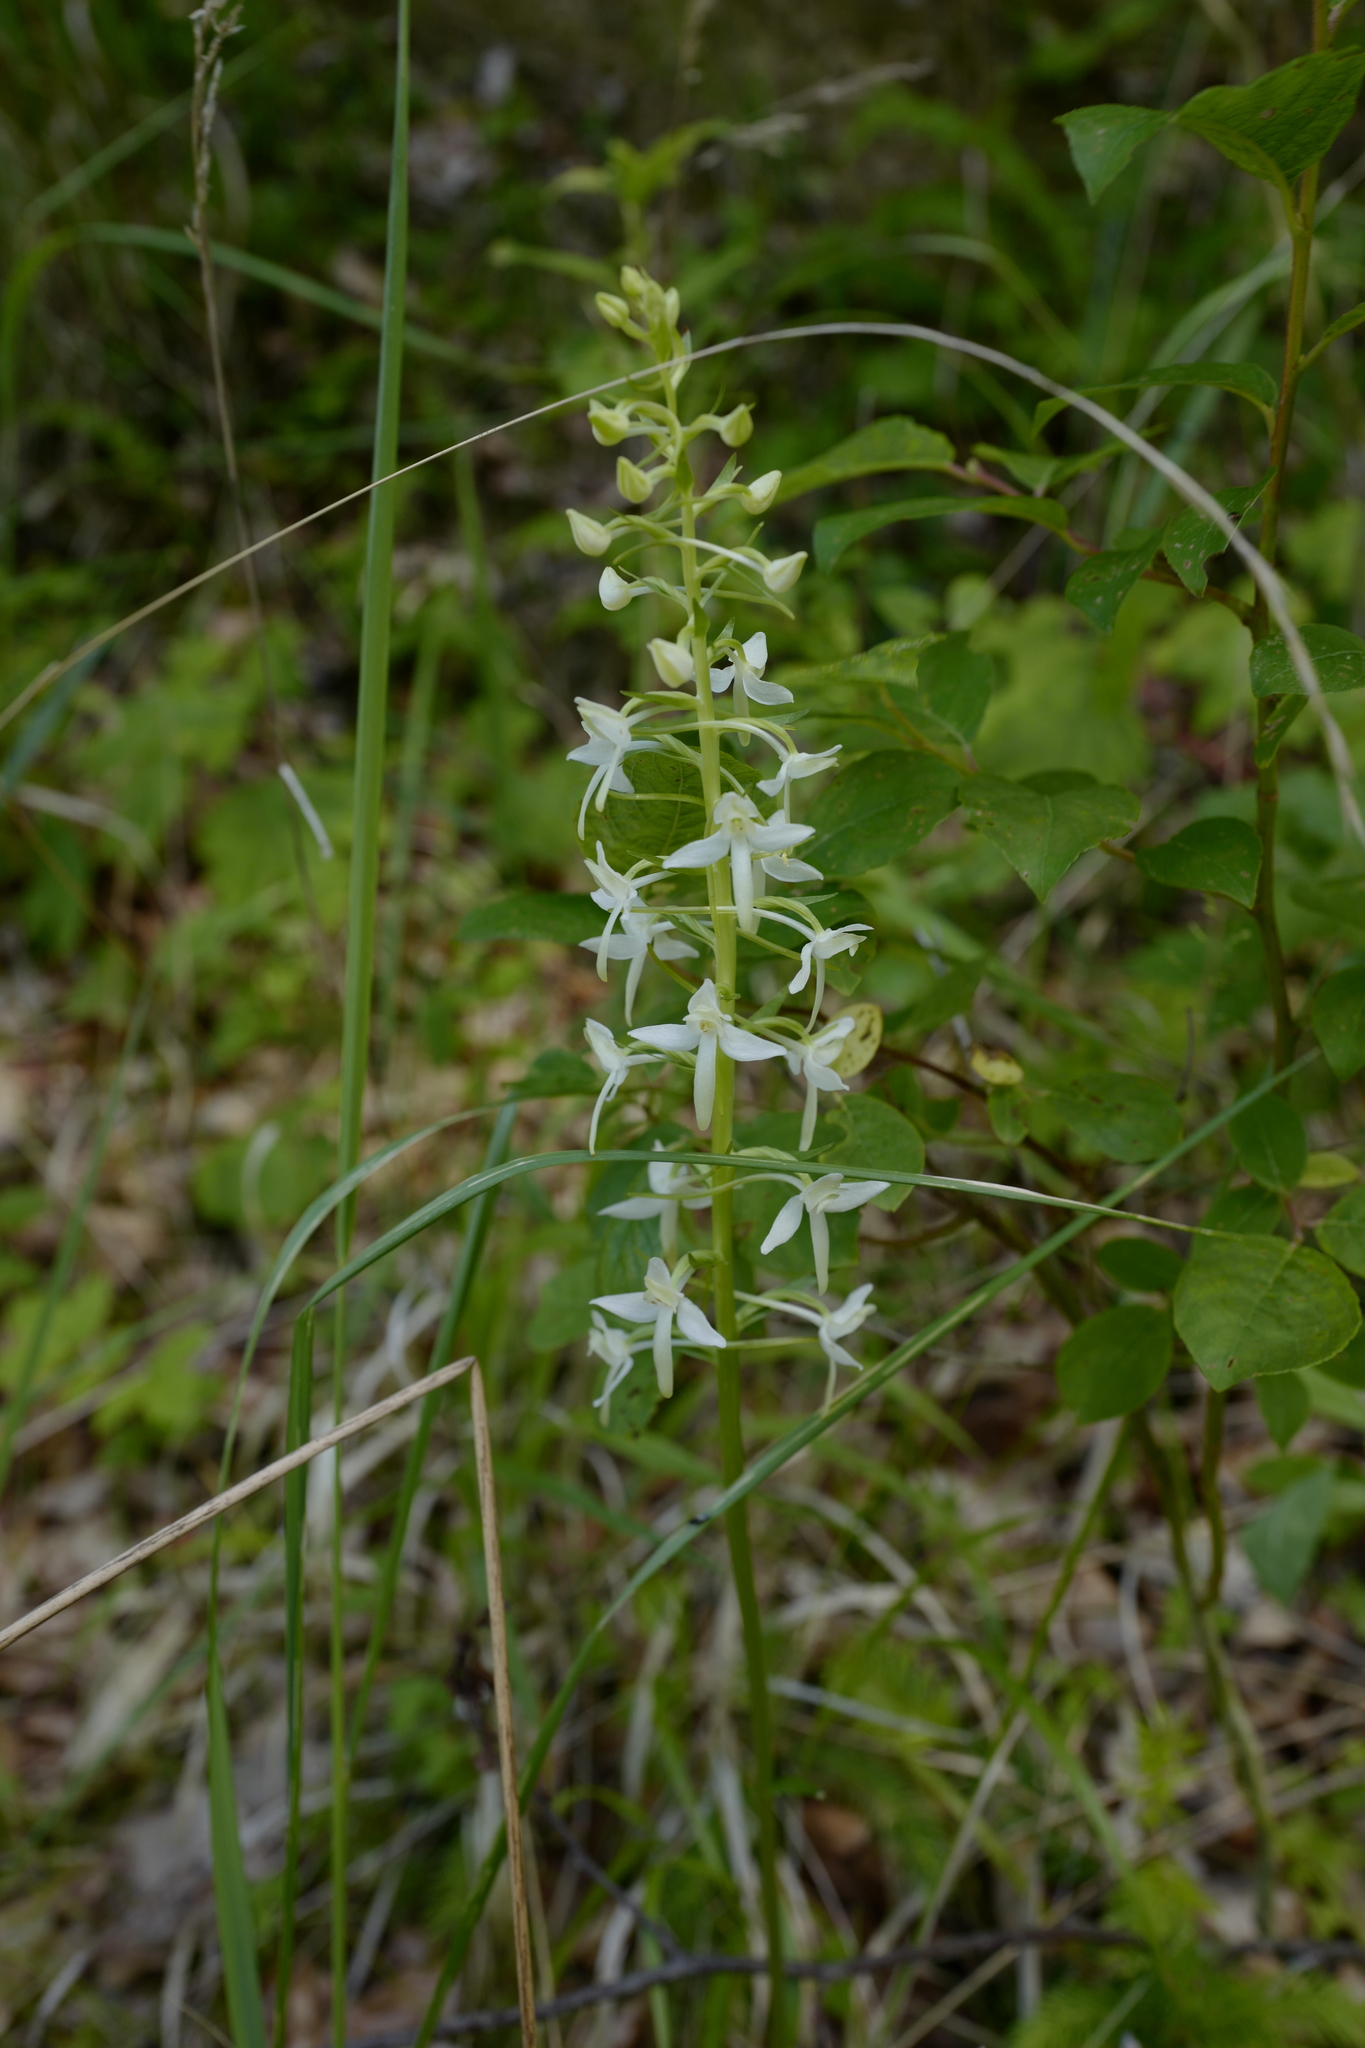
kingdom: Plantae
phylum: Tracheophyta
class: Liliopsida
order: Asparagales
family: Orchidaceae
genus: Platanthera
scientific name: Platanthera bifolia
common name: Lesser butterfly-orchid
